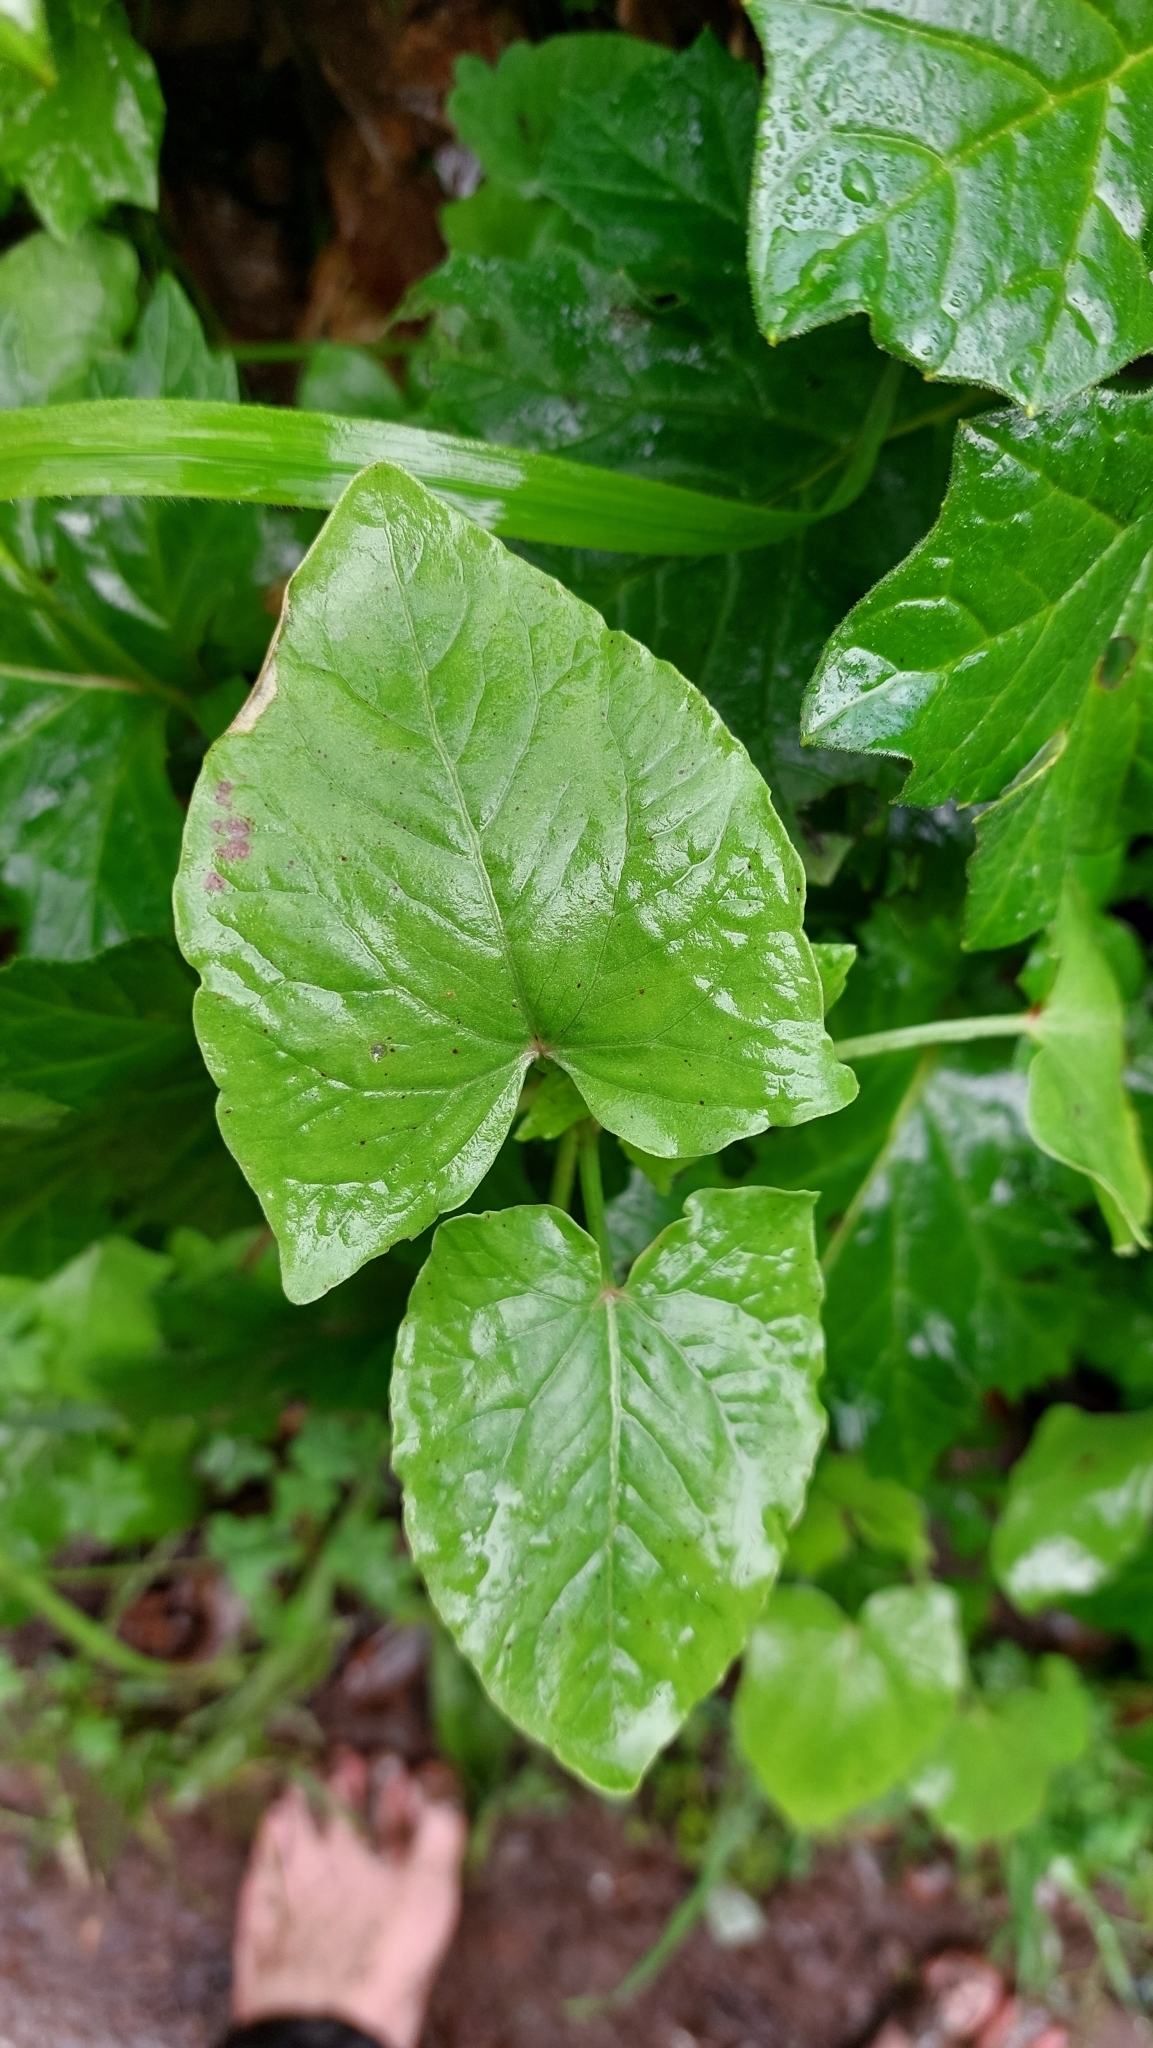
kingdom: Plantae
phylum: Tracheophyta
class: Magnoliopsida
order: Caryophyllales
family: Polygonaceae
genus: Rumex
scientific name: Rumex maderensis
